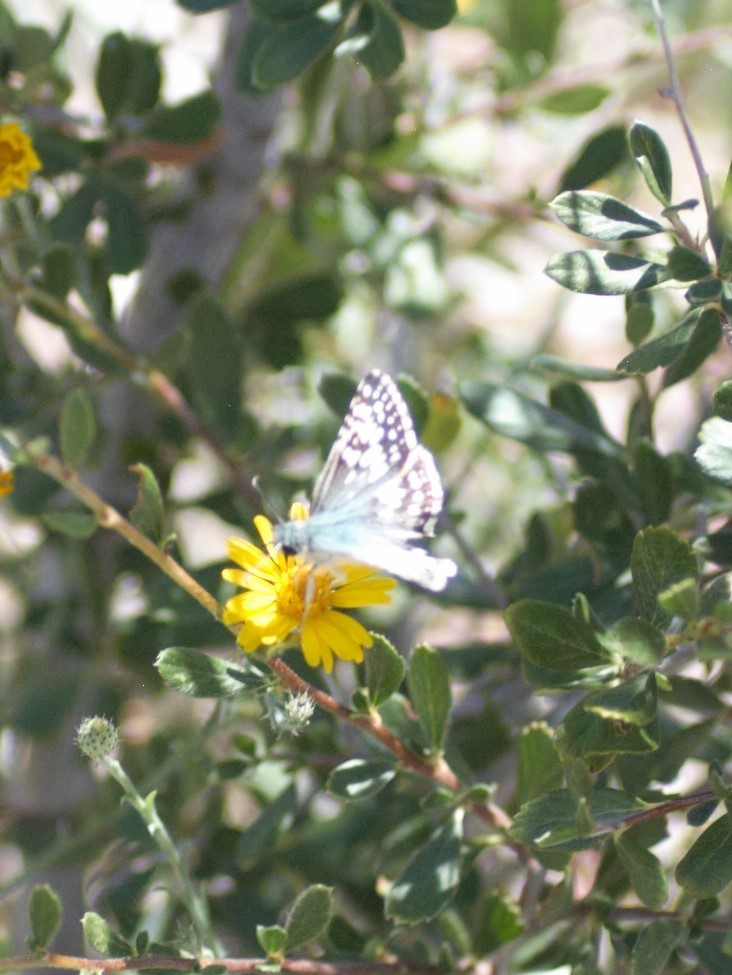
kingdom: Animalia
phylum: Arthropoda
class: Insecta
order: Lepidoptera
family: Hesperiidae
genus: Burnsius
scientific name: Burnsius
